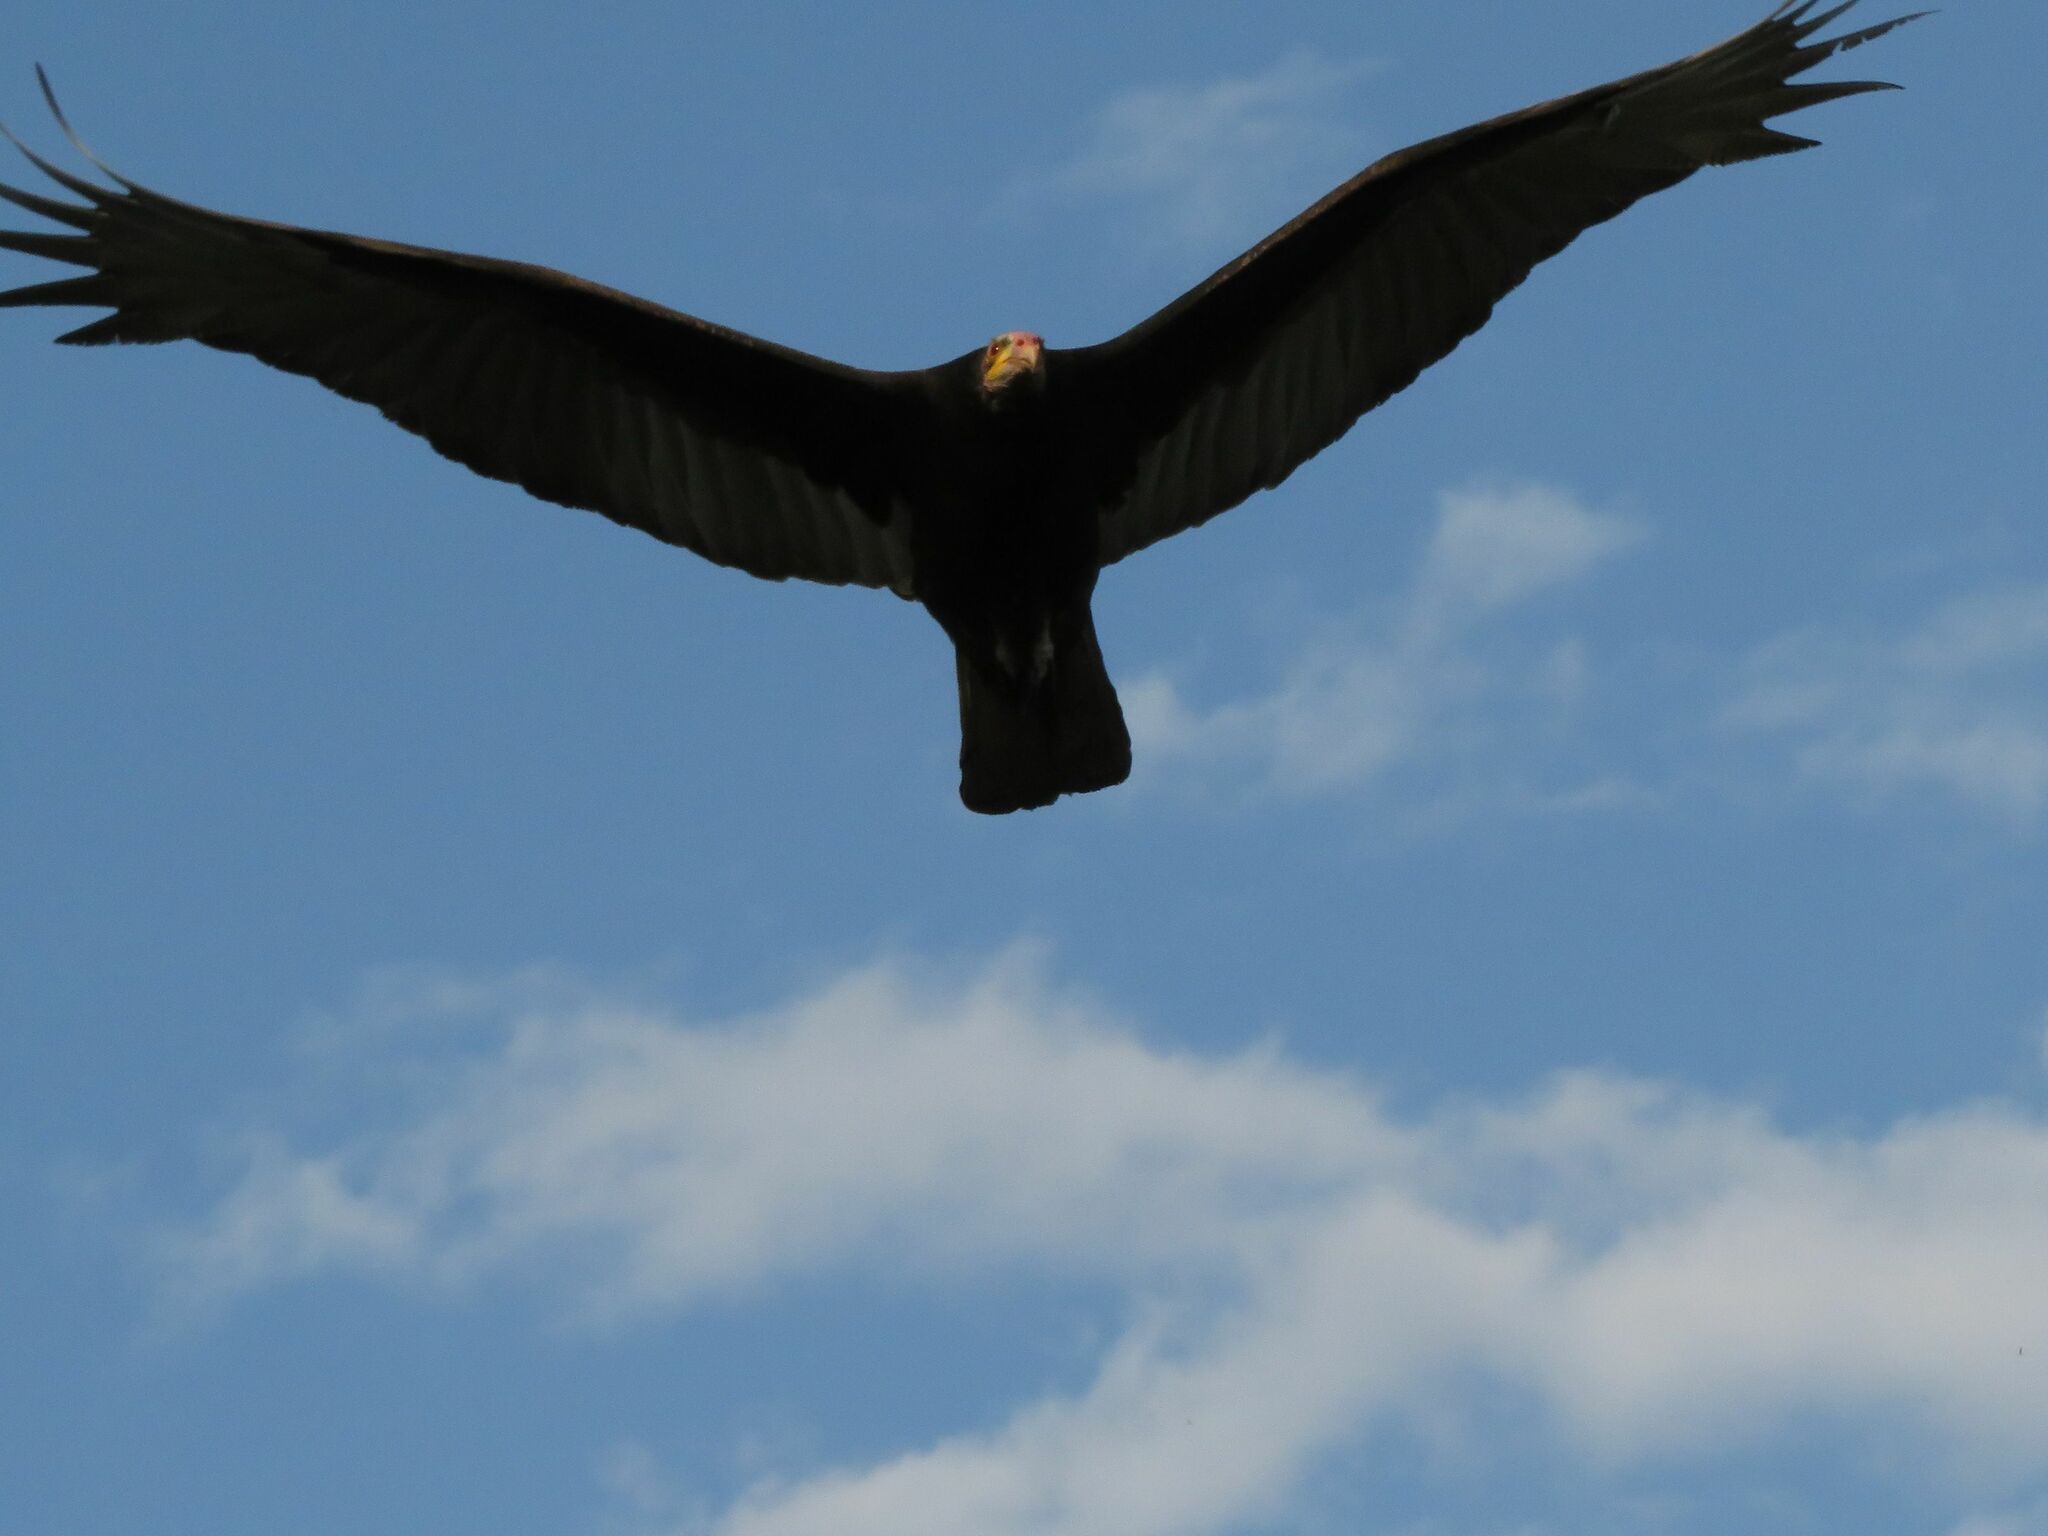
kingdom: Animalia
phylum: Chordata
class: Aves
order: Accipitriformes
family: Cathartidae
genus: Cathartes
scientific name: Cathartes burrovianus
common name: Lesser yellow-headed vulture
